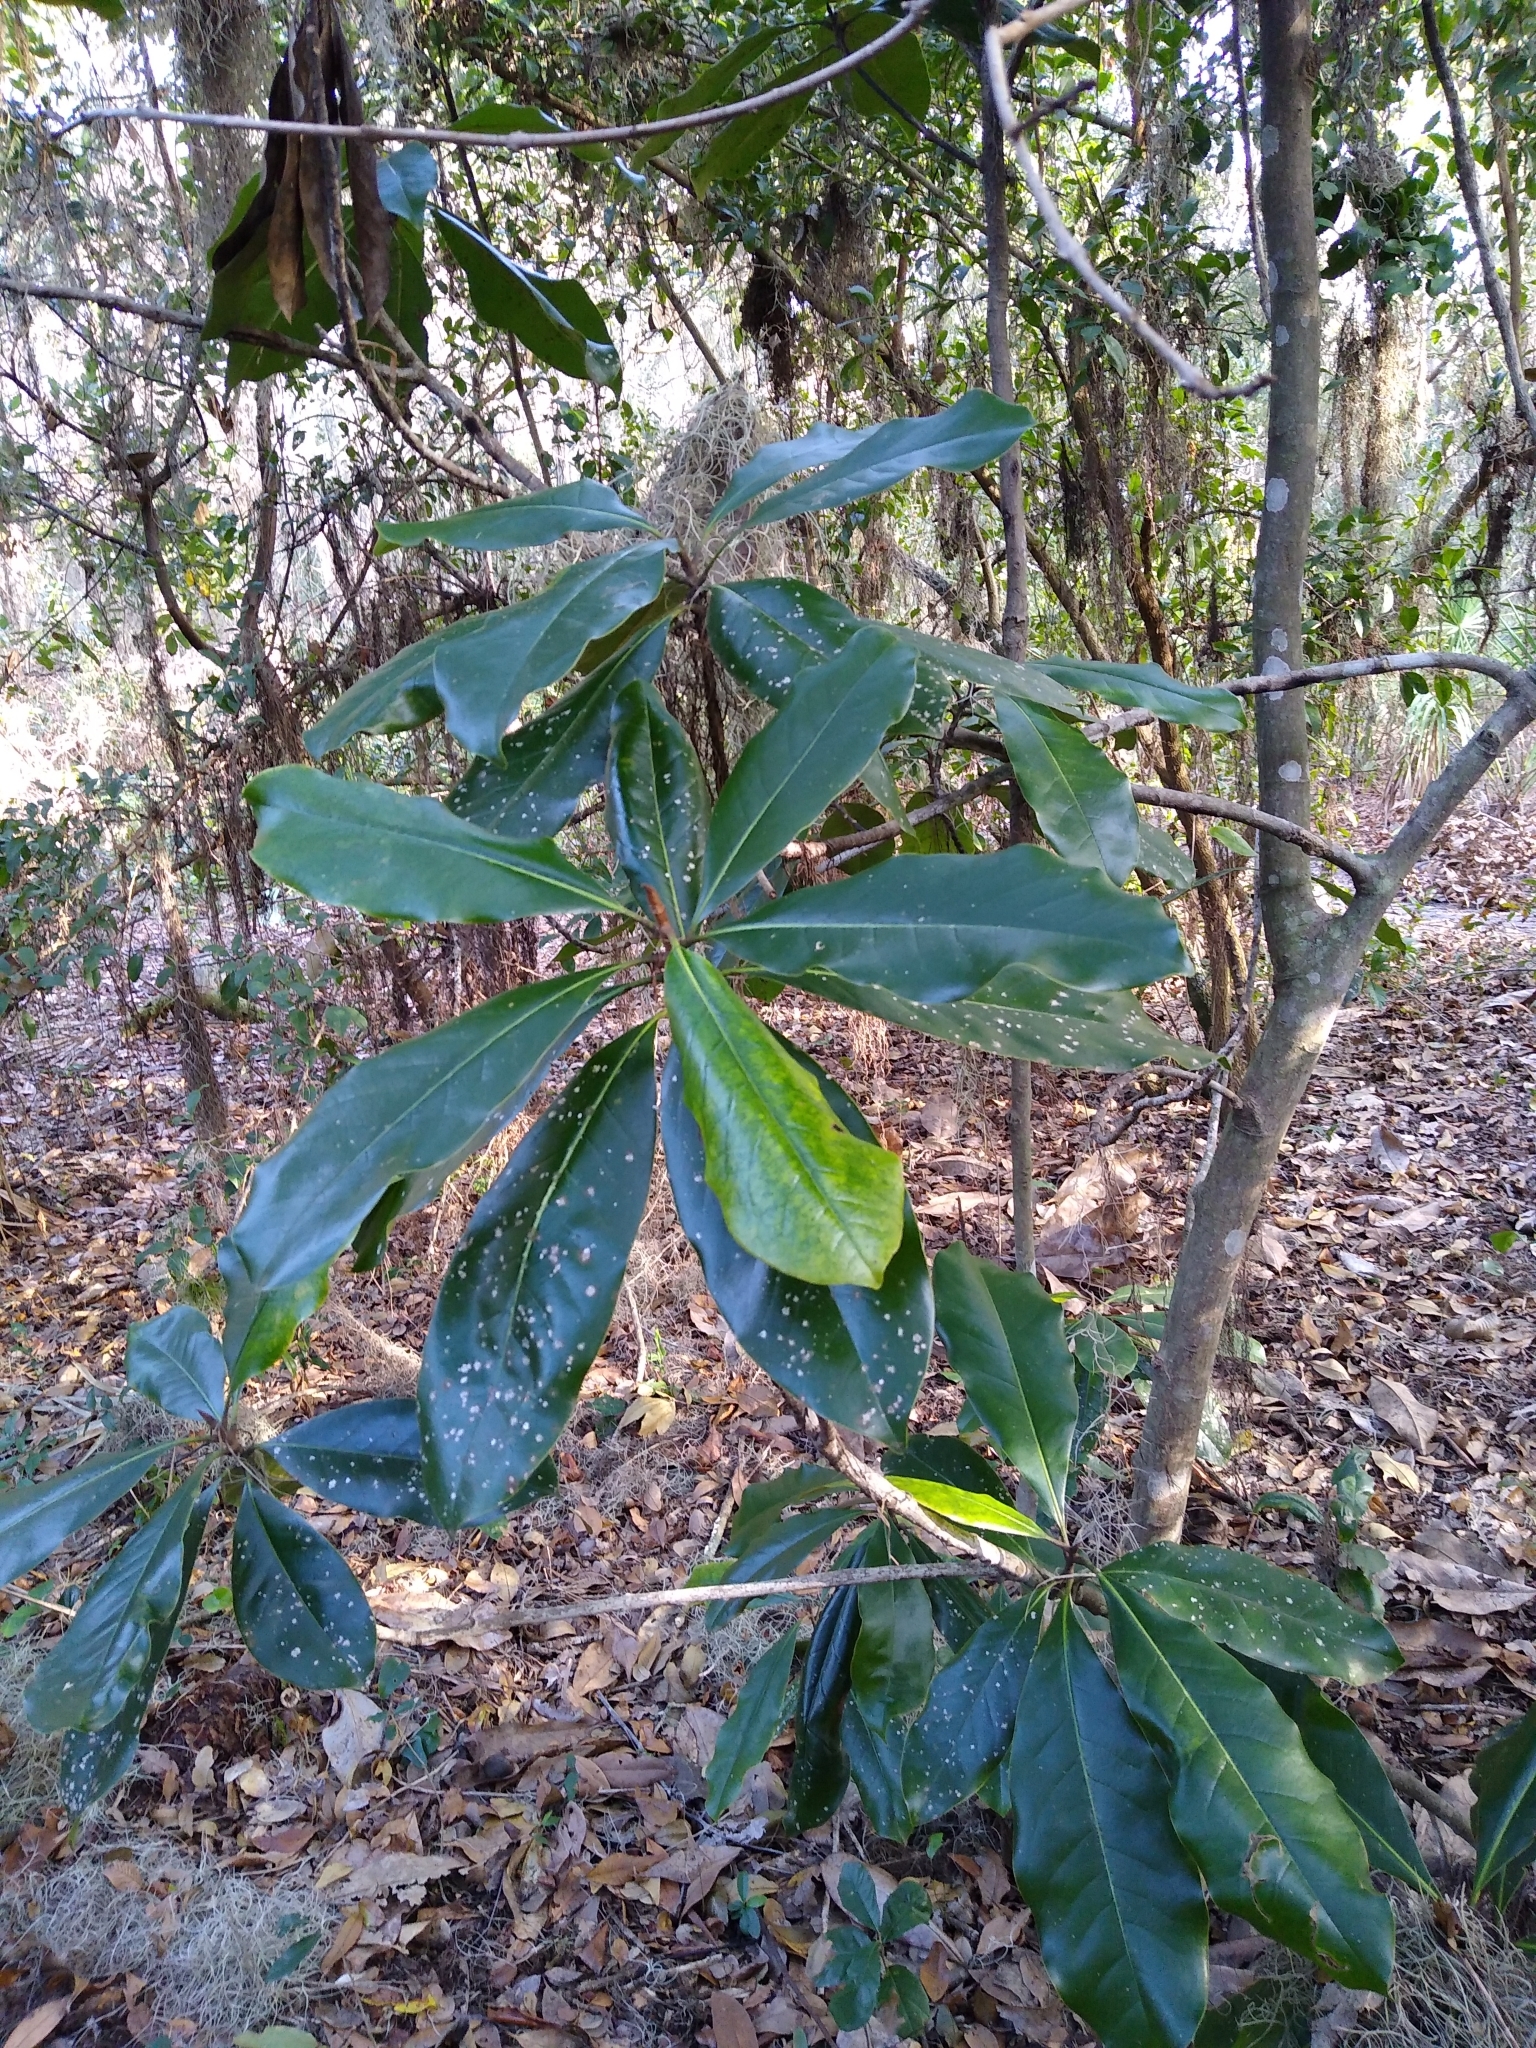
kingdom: Plantae
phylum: Tracheophyta
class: Magnoliopsida
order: Magnoliales
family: Magnoliaceae
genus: Magnolia
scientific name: Magnolia grandiflora
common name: Southern magnolia
